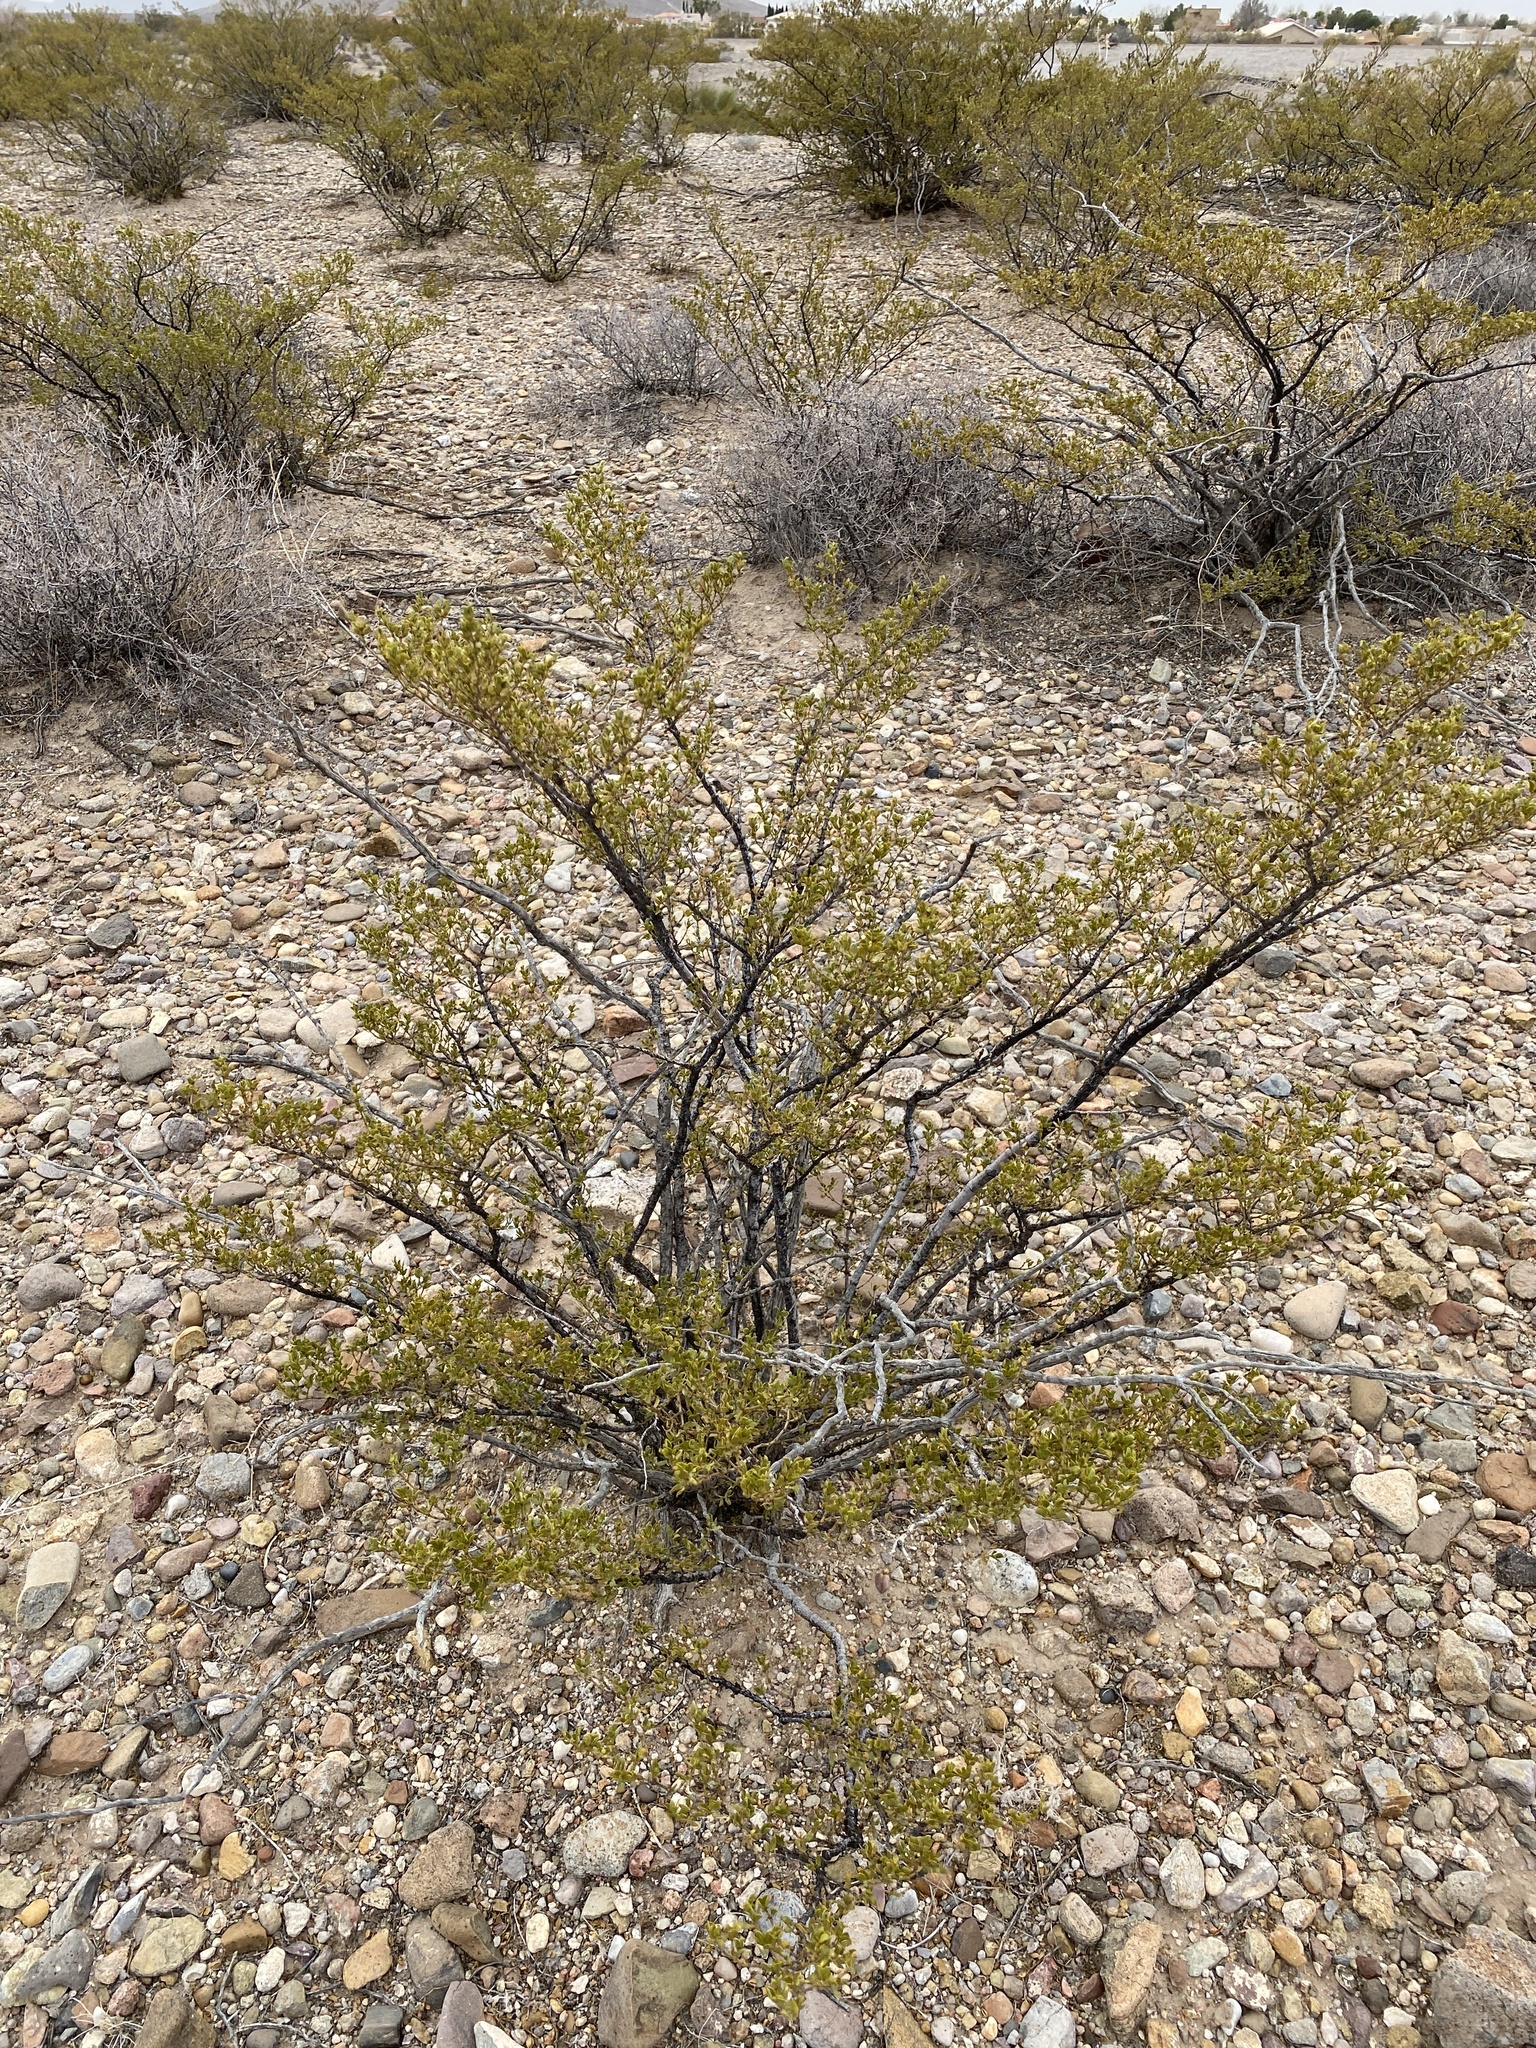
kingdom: Plantae
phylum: Tracheophyta
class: Magnoliopsida
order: Zygophyllales
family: Zygophyllaceae
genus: Larrea
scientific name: Larrea tridentata
